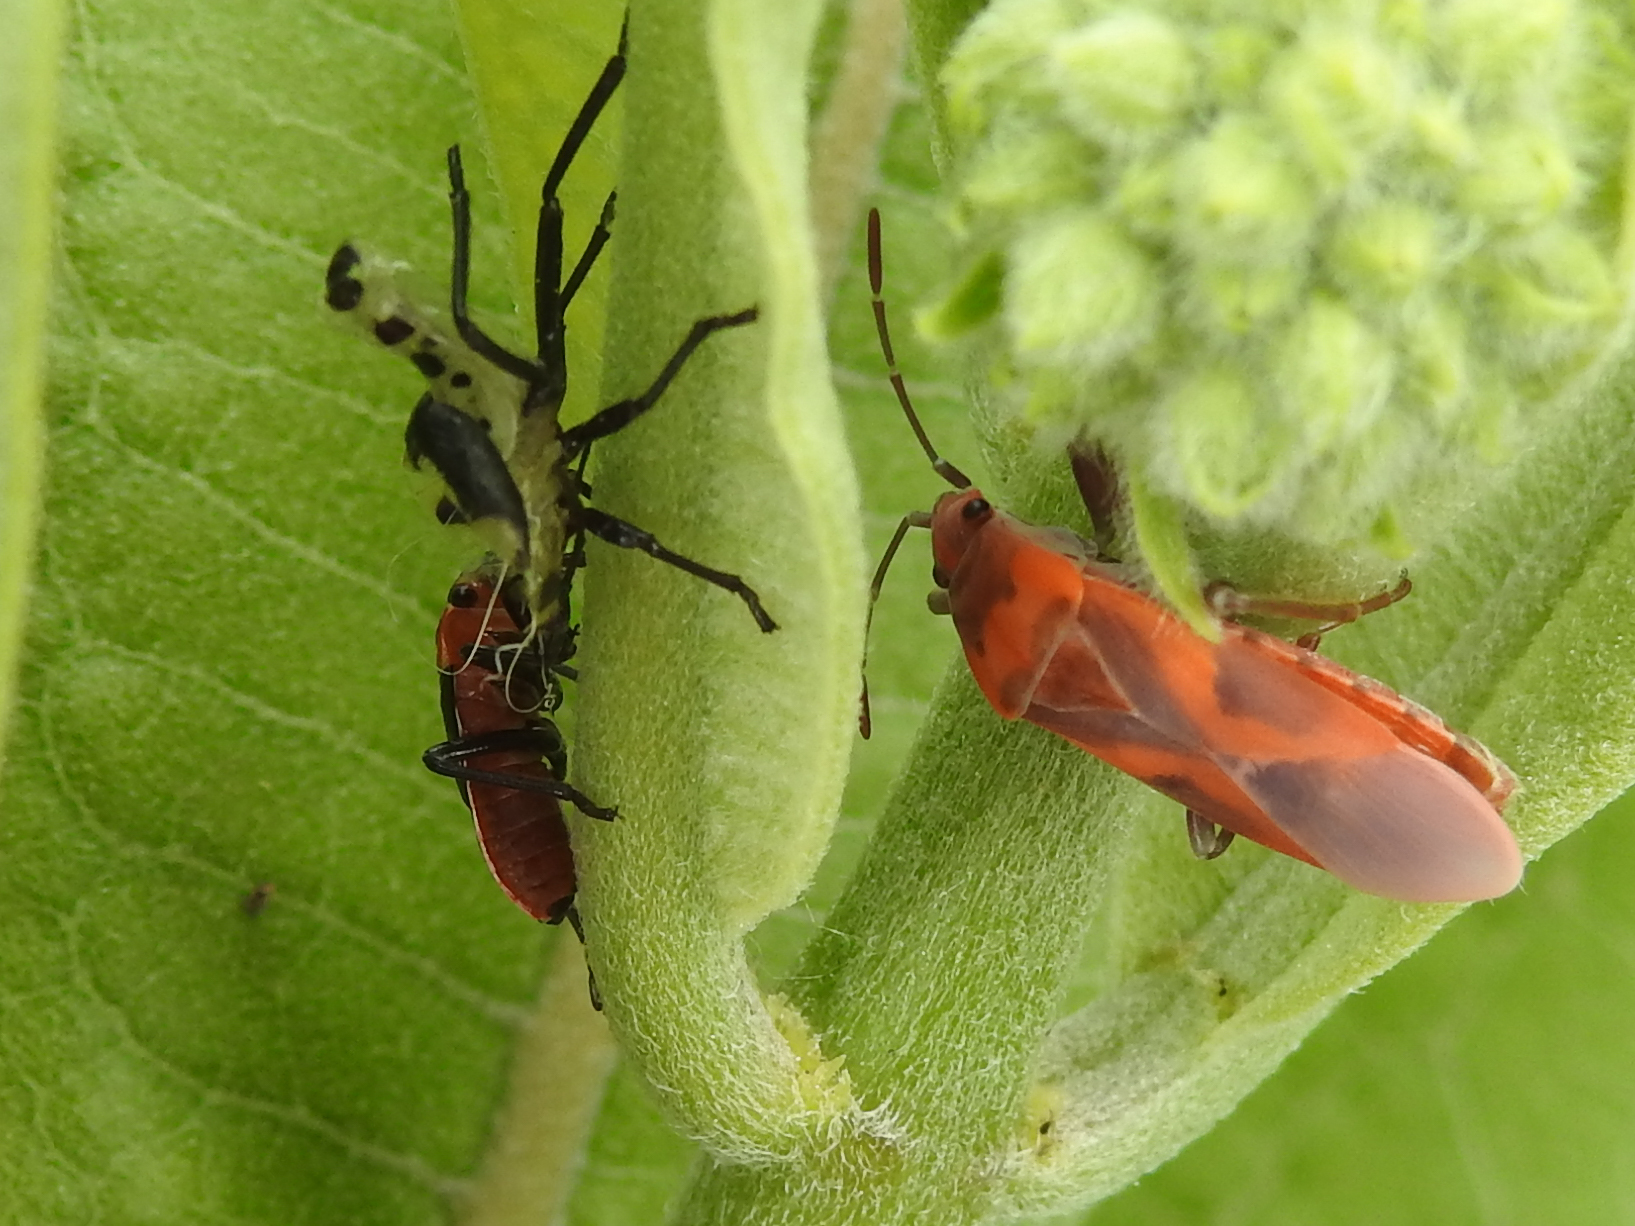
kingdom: Animalia
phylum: Arthropoda
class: Insecta
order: Hemiptera
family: Lygaeidae
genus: Lygaeus
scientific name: Lygaeus kalmii
